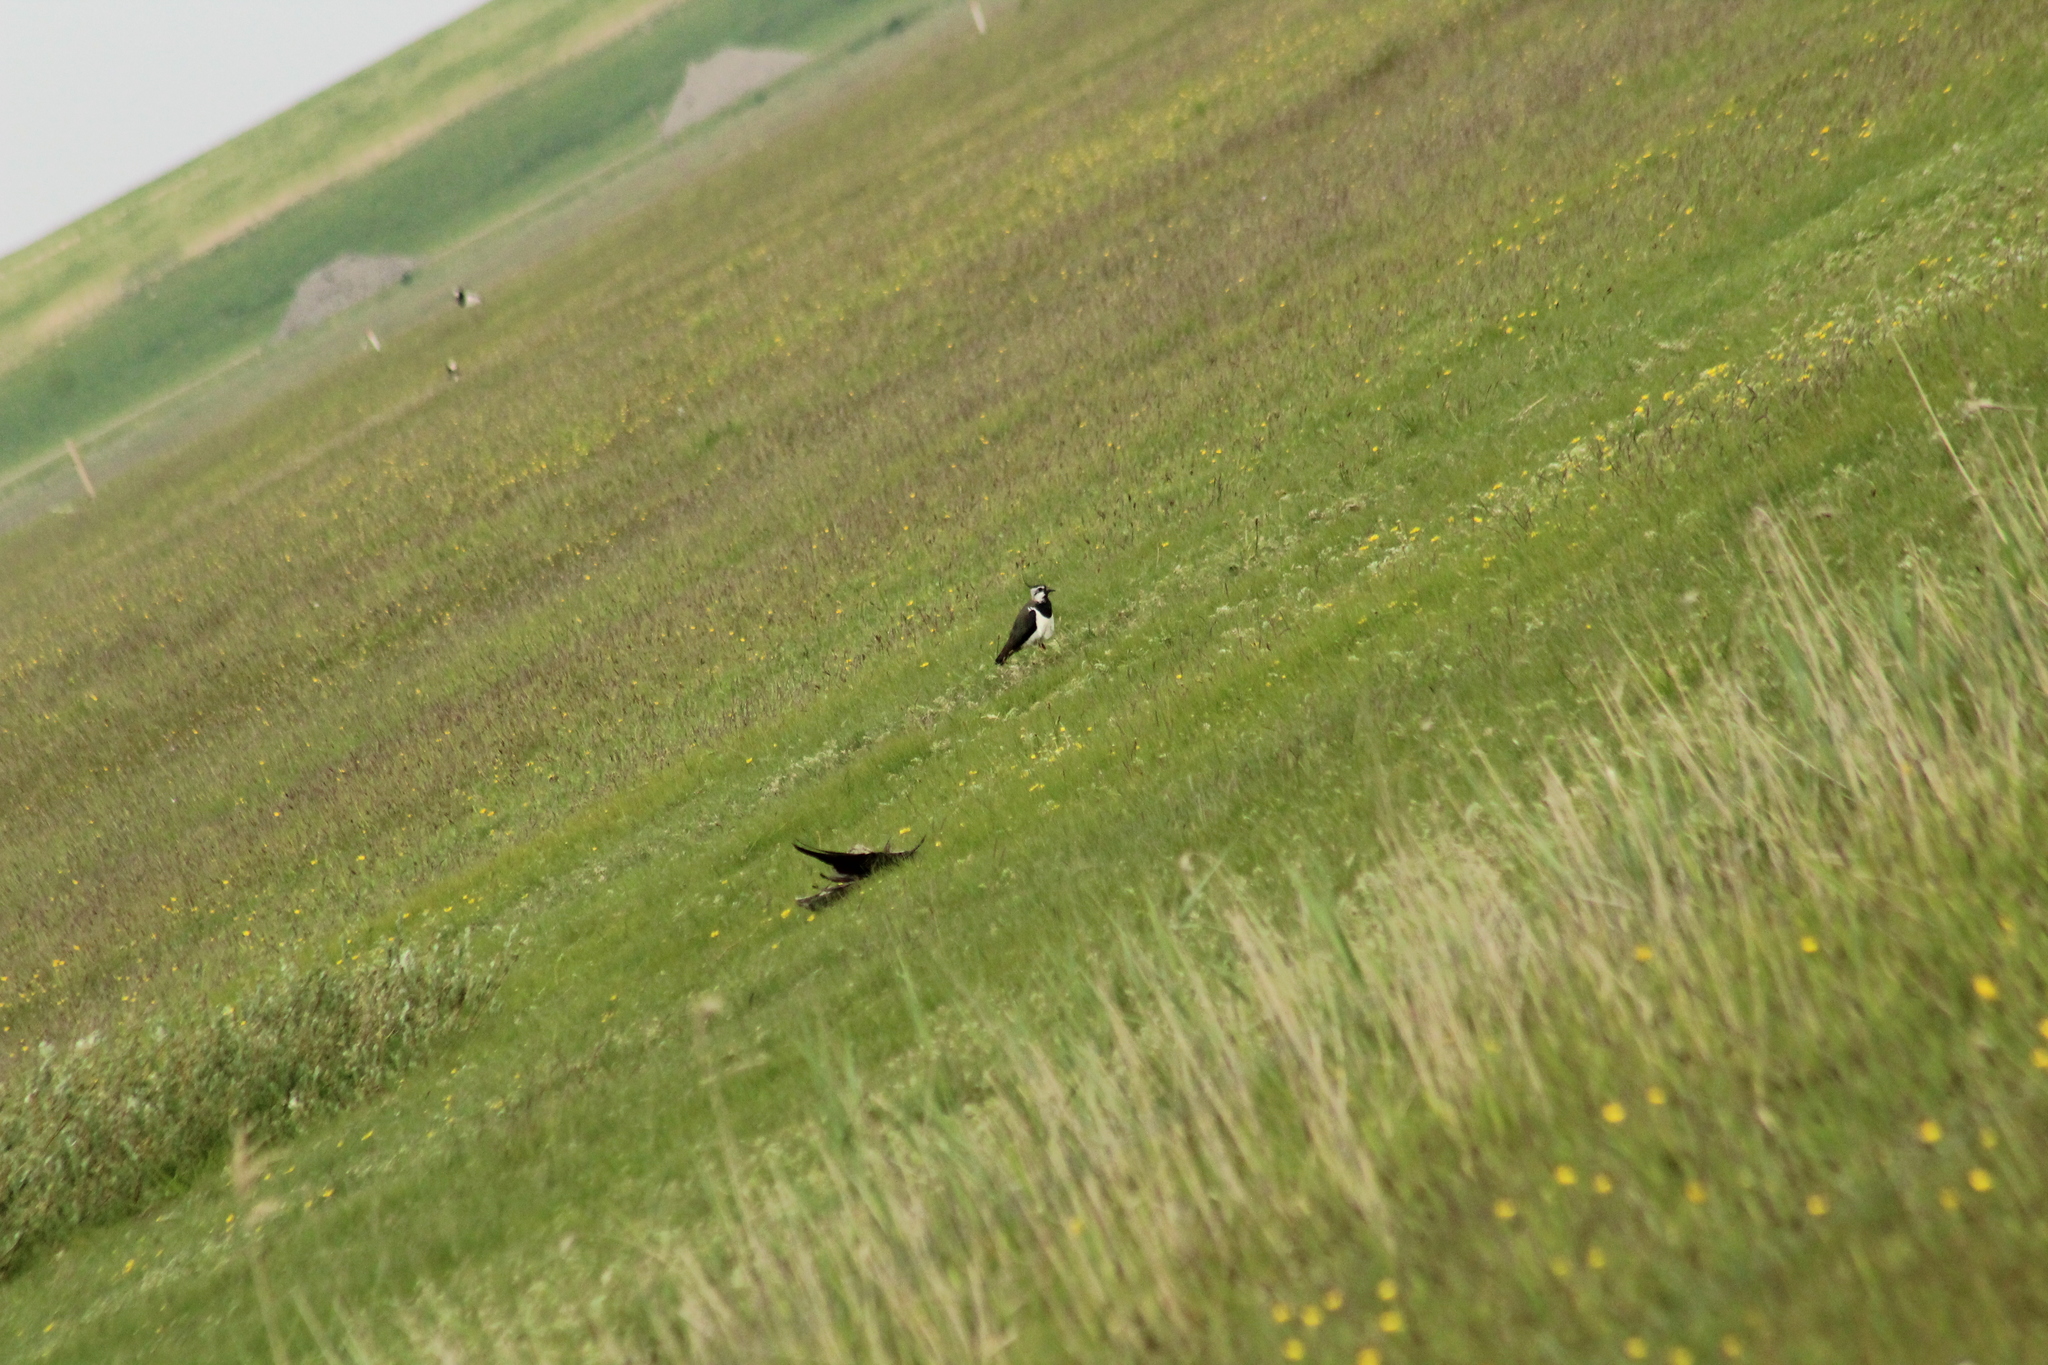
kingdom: Animalia
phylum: Chordata
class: Aves
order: Charadriiformes
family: Charadriidae
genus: Vanellus
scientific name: Vanellus vanellus
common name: Northern lapwing
